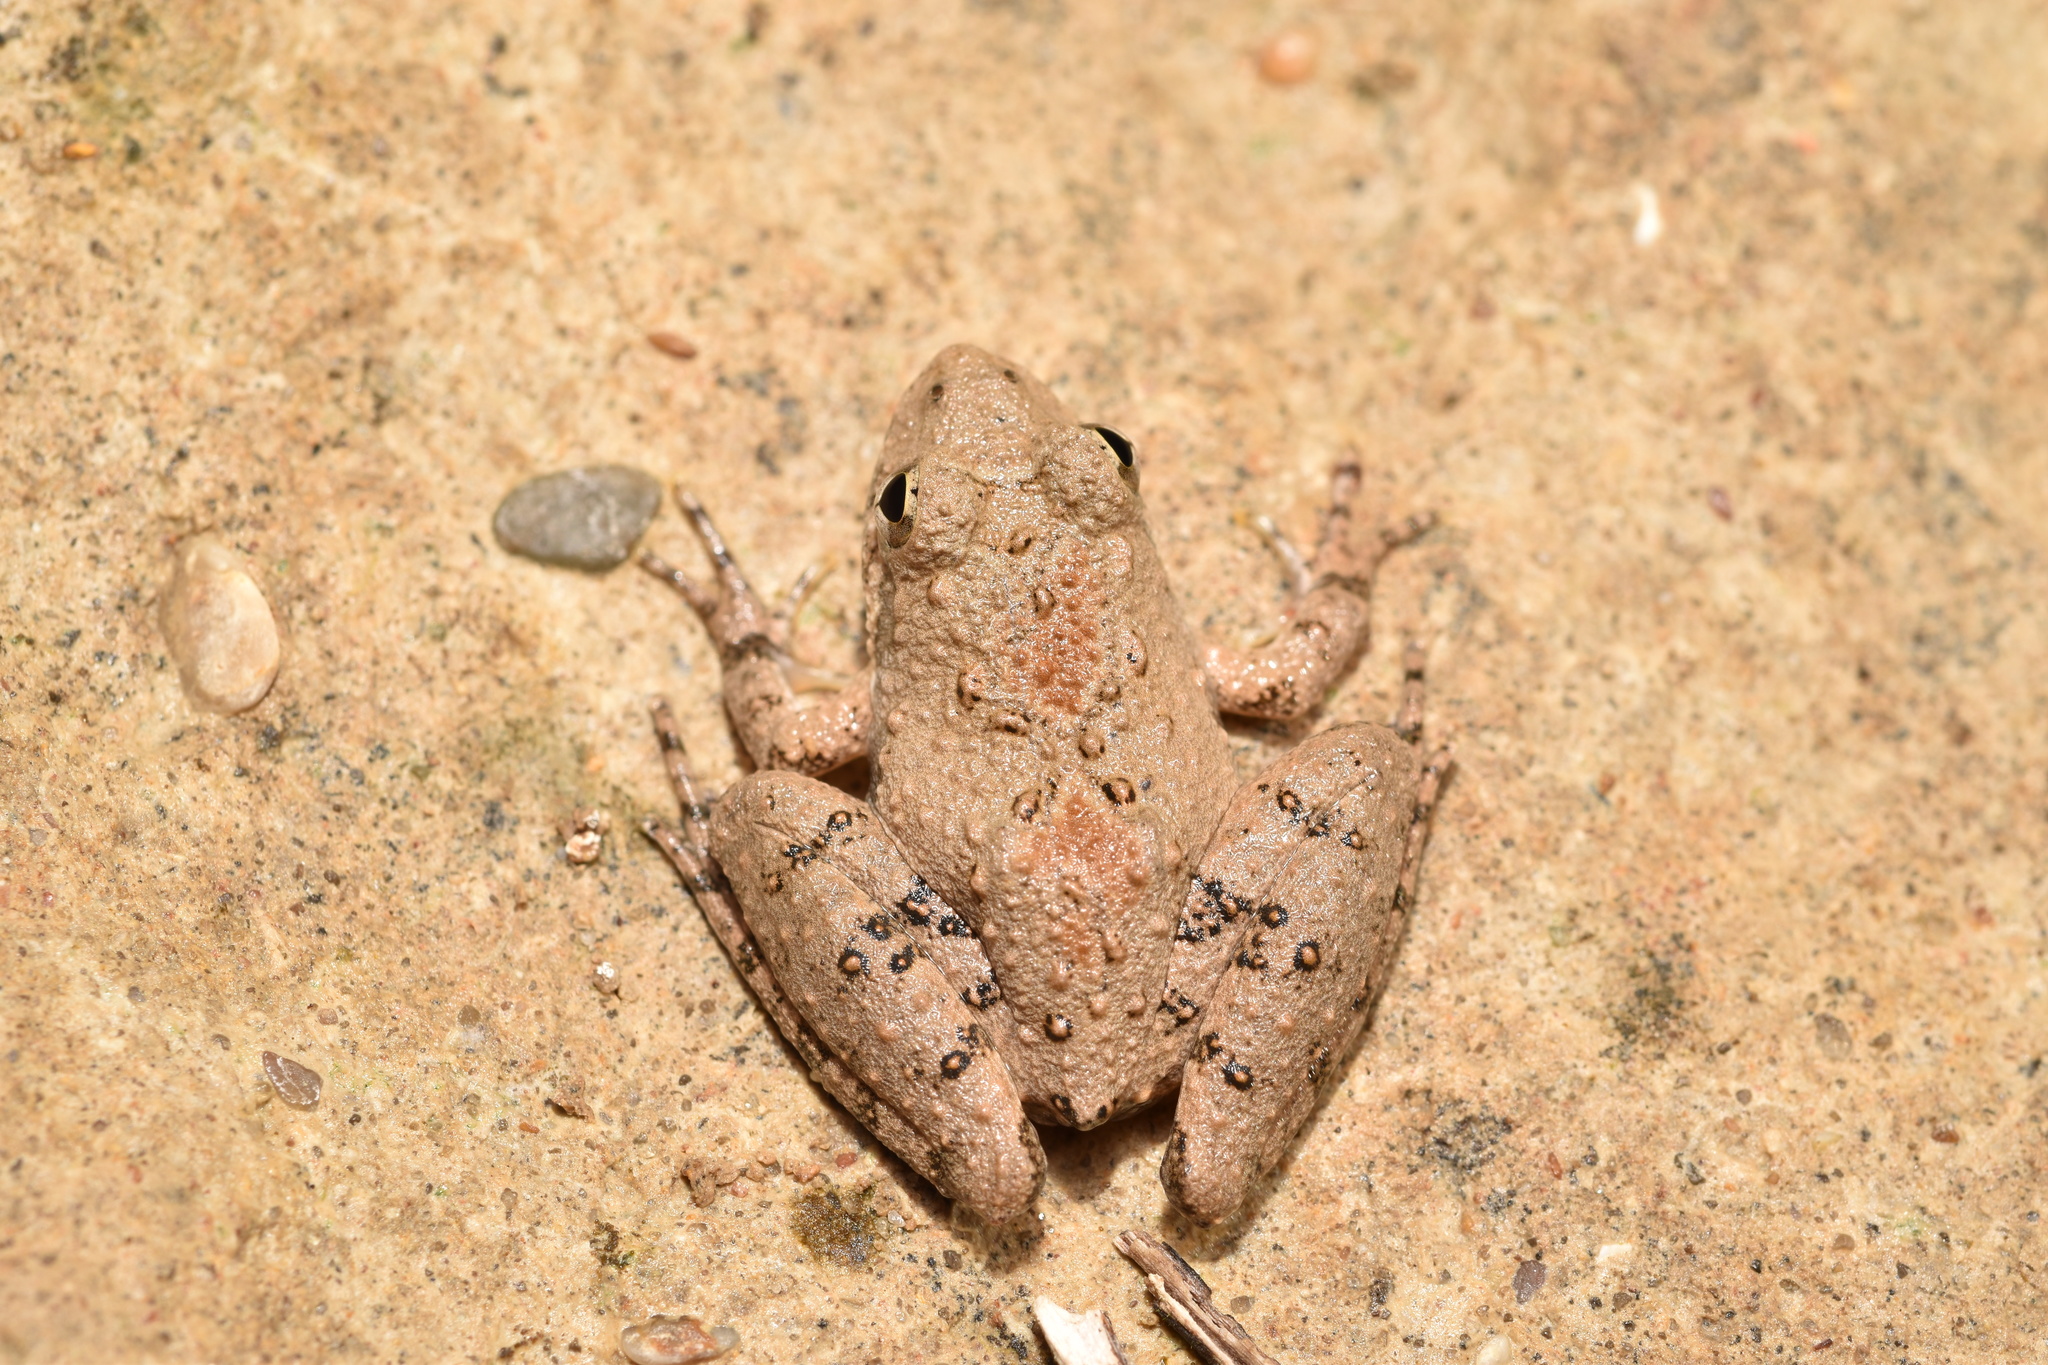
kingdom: Animalia
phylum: Chordata
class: Amphibia
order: Anura
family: Hylidae
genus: Acris
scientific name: Acris blanchardi
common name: Blanchard's cricket frog
